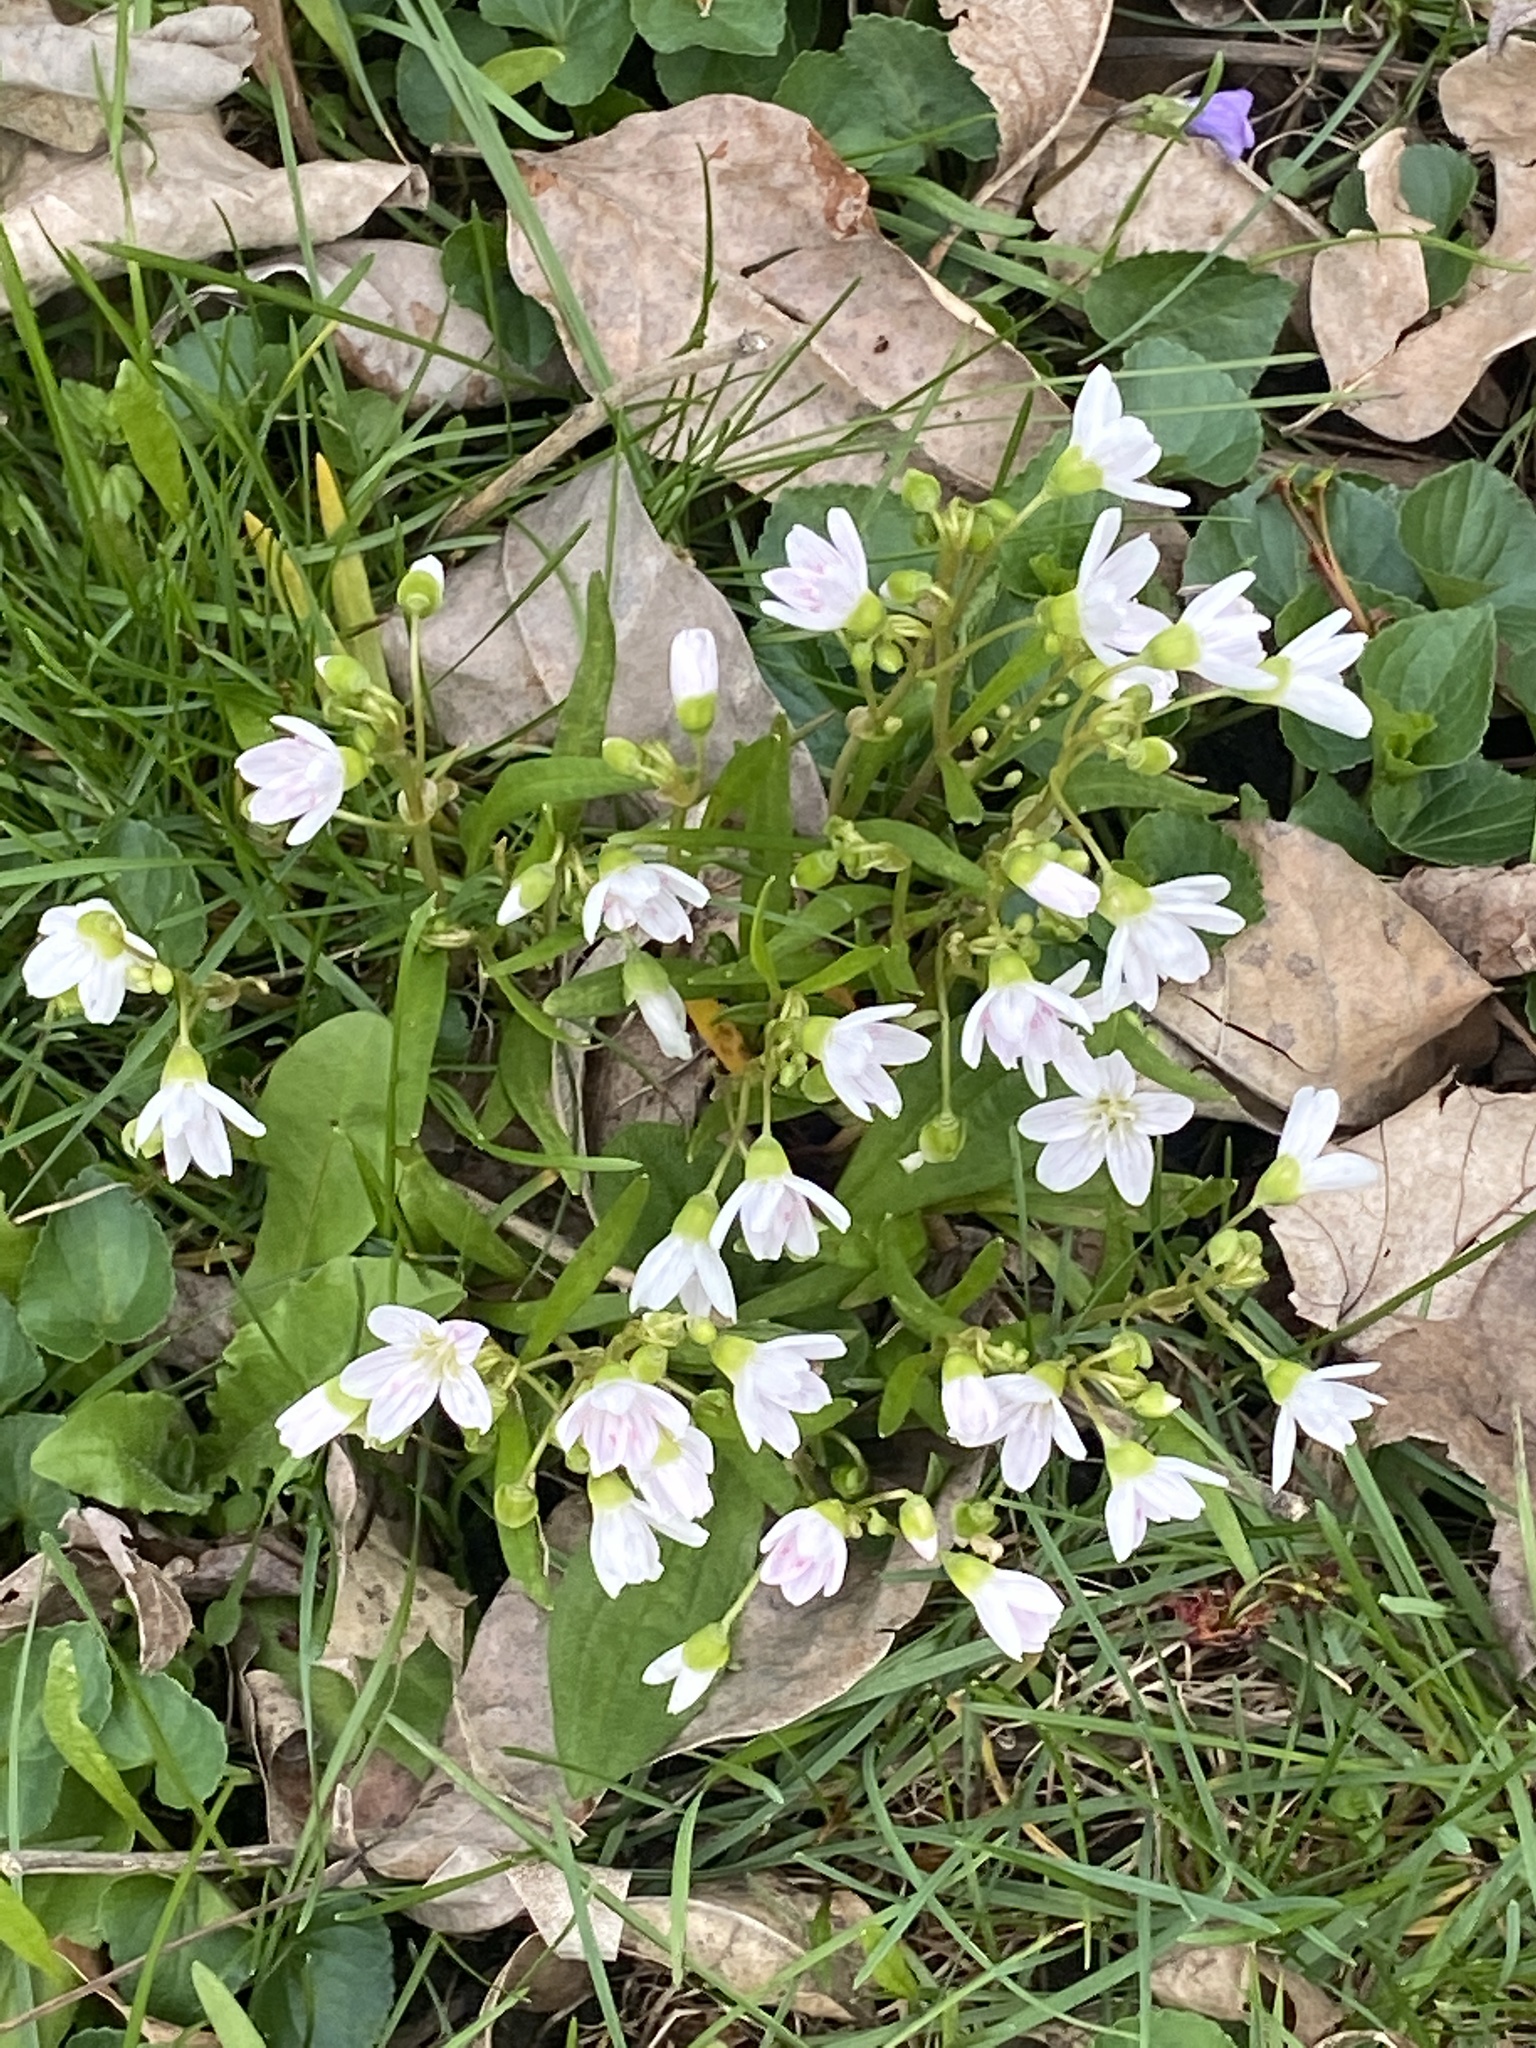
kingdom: Plantae
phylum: Tracheophyta
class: Magnoliopsida
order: Caryophyllales
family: Montiaceae
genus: Claytonia
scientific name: Claytonia virginica
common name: Virginia springbeauty
